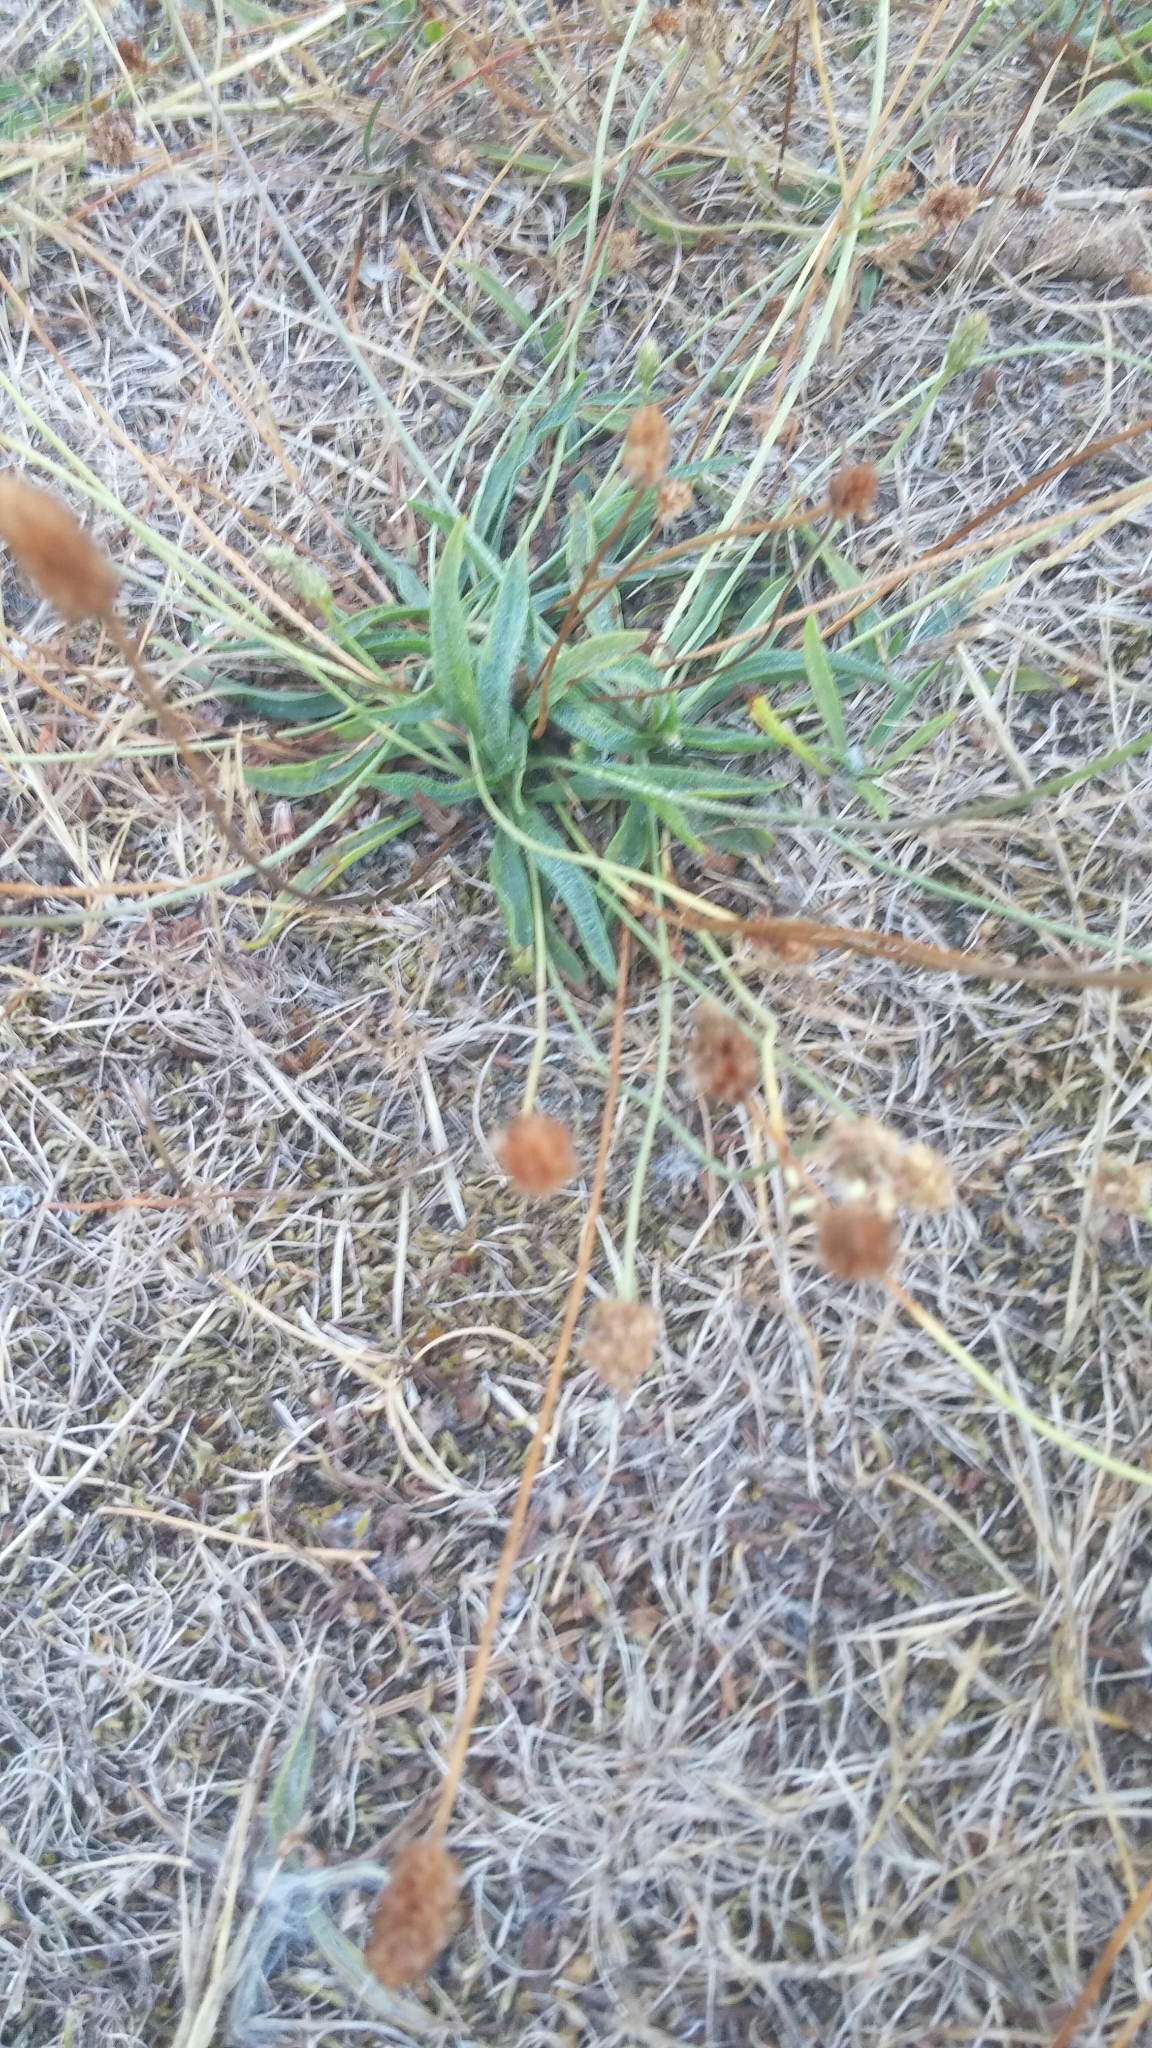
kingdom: Plantae
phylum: Tracheophyta
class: Magnoliopsida
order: Lamiales
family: Plantaginaceae
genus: Plantago
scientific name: Plantago lanceolata
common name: Ribwort plantain
